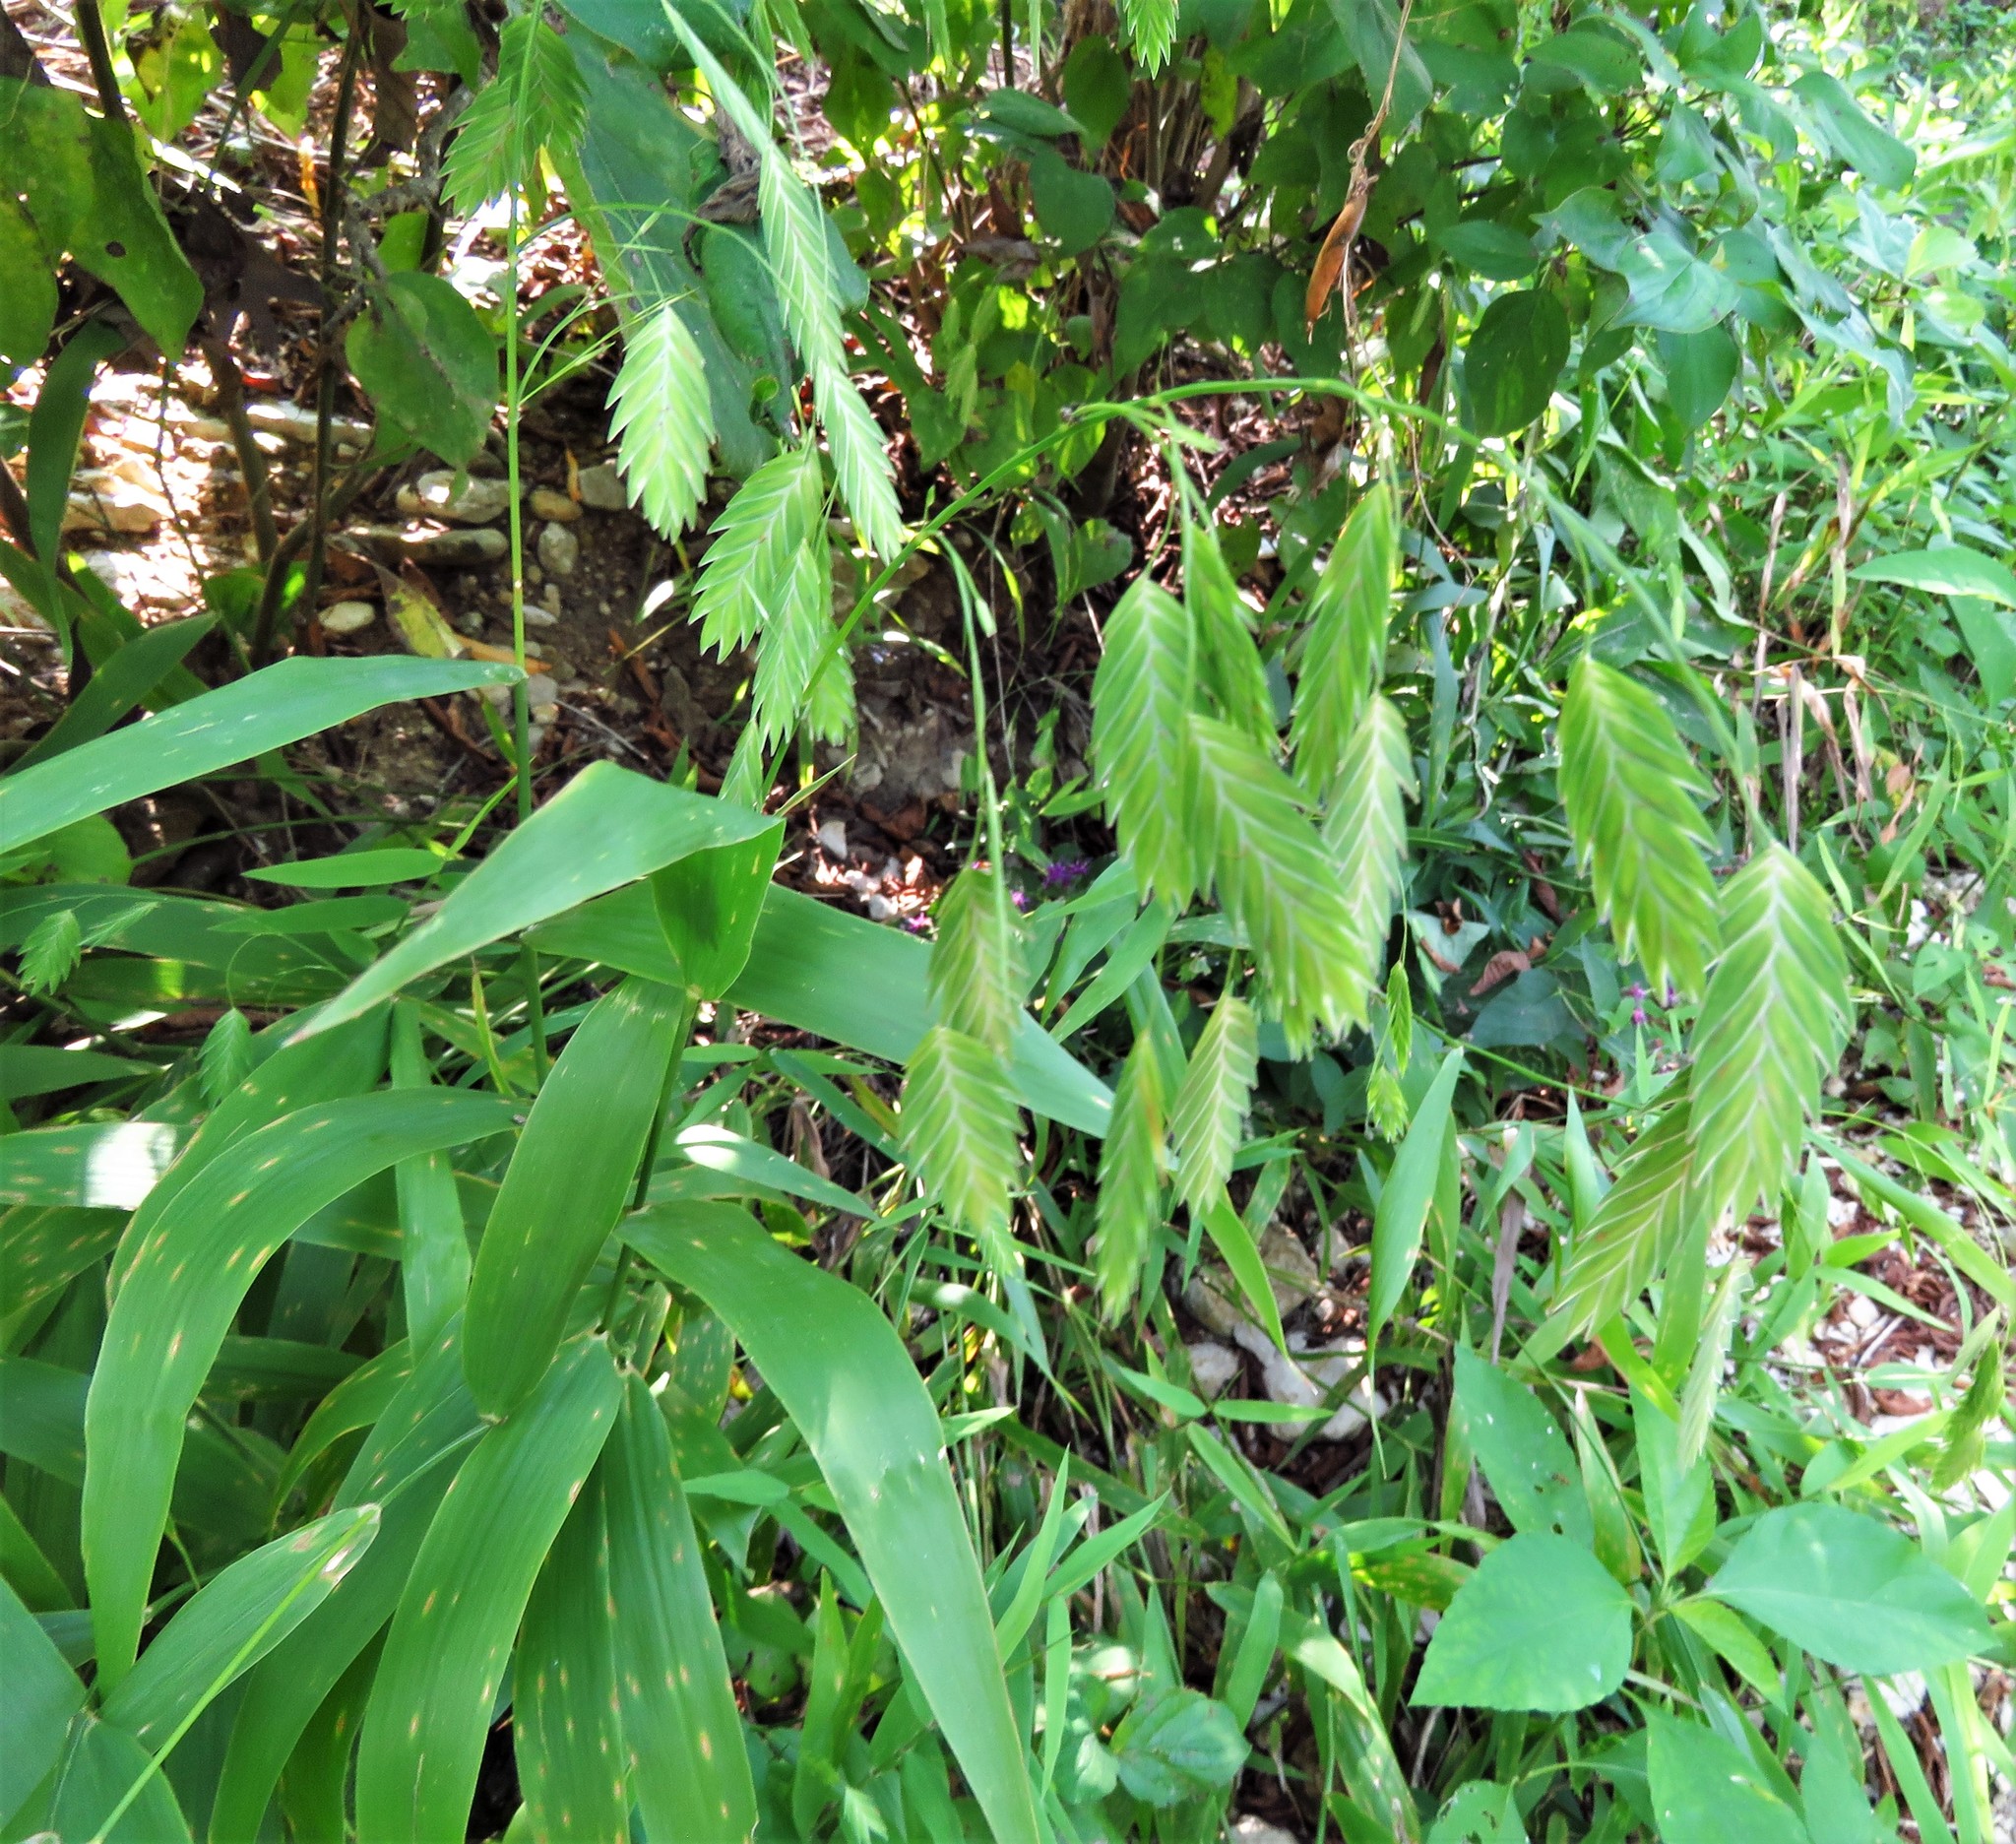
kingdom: Plantae
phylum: Tracheophyta
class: Liliopsida
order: Poales
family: Poaceae
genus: Chasmanthium
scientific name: Chasmanthium latifolium
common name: Broad-leaved chasmanthium
